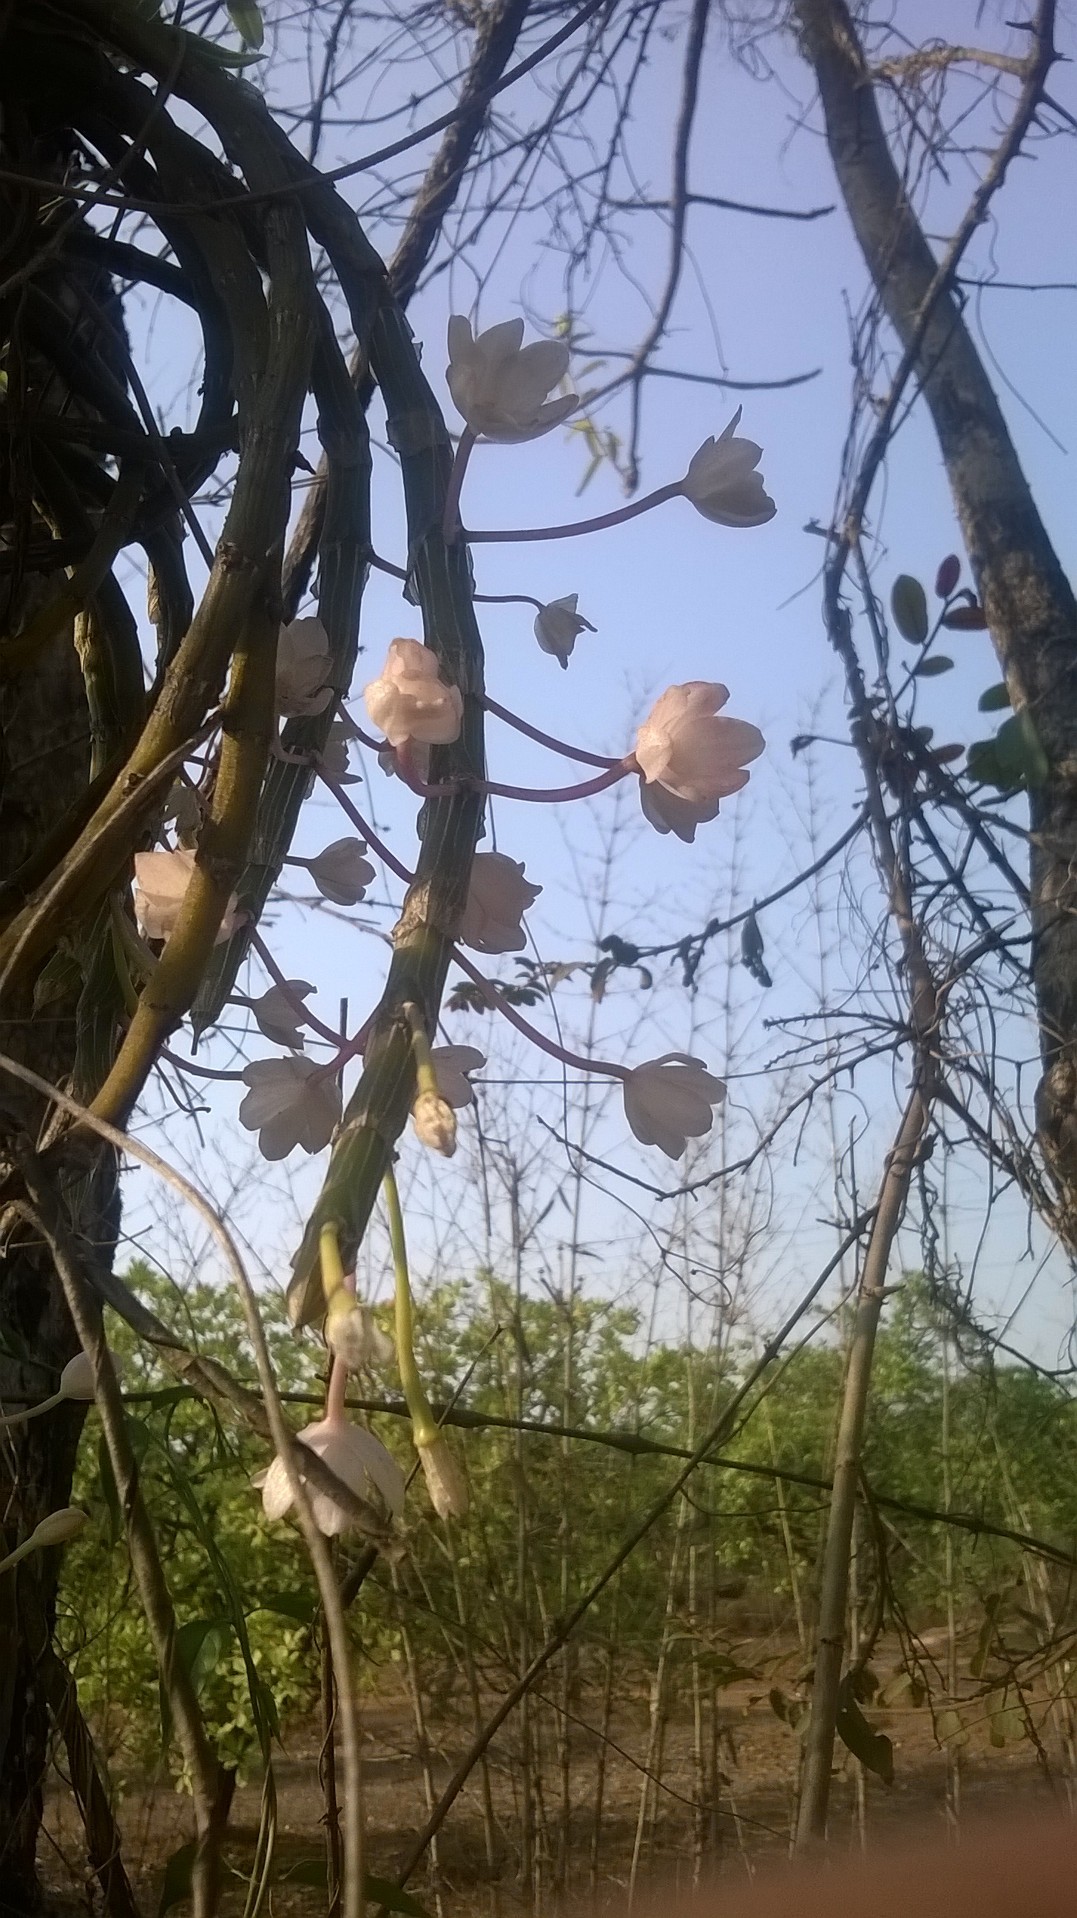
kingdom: Plantae
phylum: Tracheophyta
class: Liliopsida
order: Asparagales
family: Orchidaceae
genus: Dendrobium
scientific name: Dendrobium crepidatum
